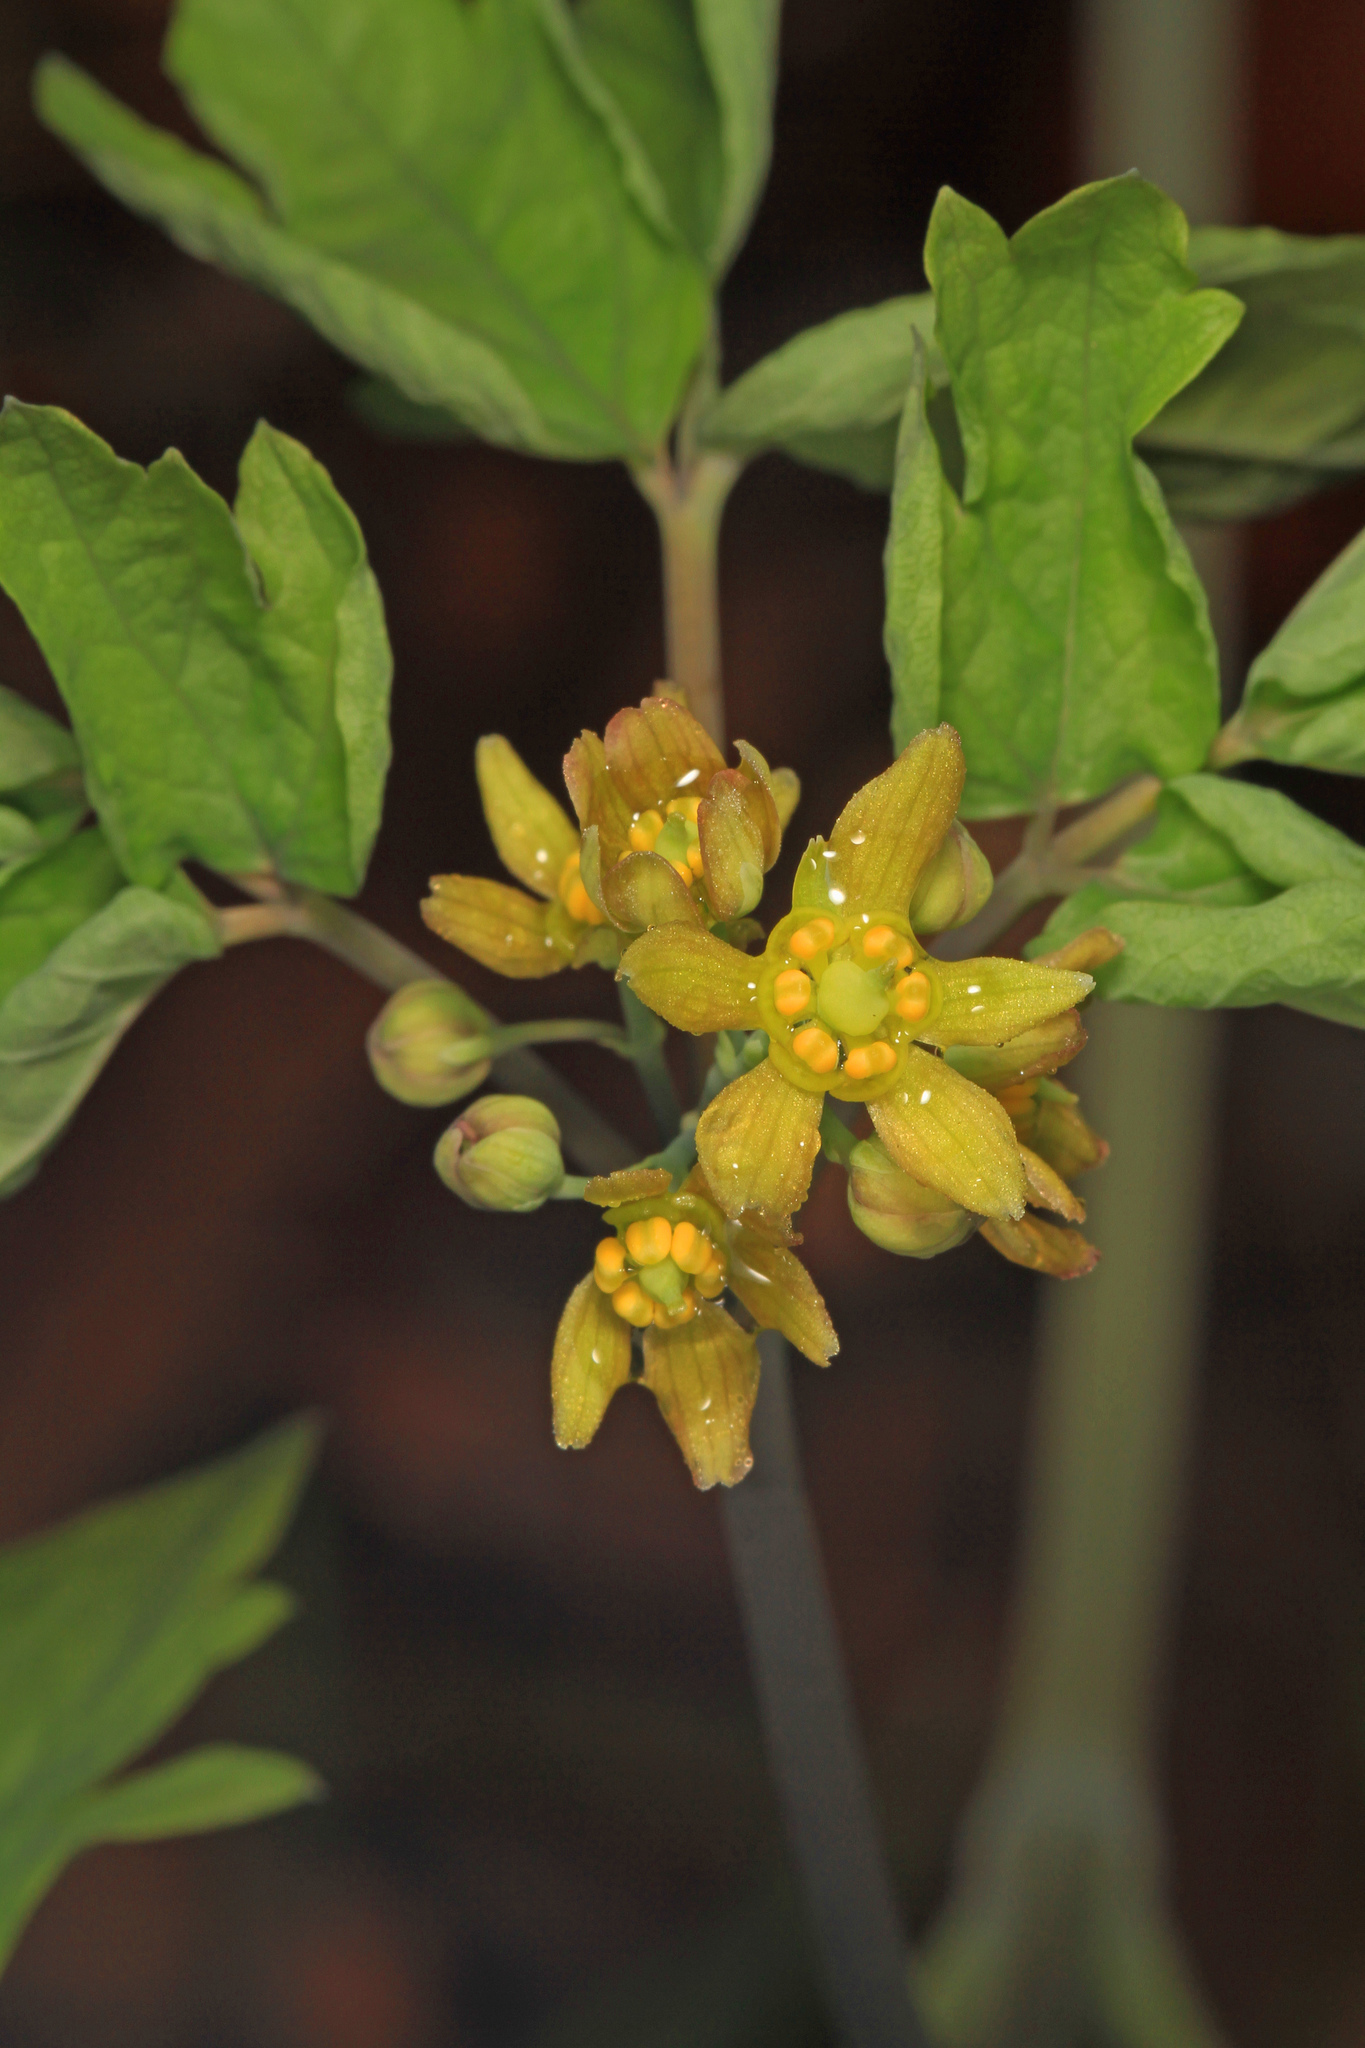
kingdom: Plantae
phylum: Tracheophyta
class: Magnoliopsida
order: Ranunculales
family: Berberidaceae
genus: Caulophyllum
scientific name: Caulophyllum thalictroides
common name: Blue cohosh
